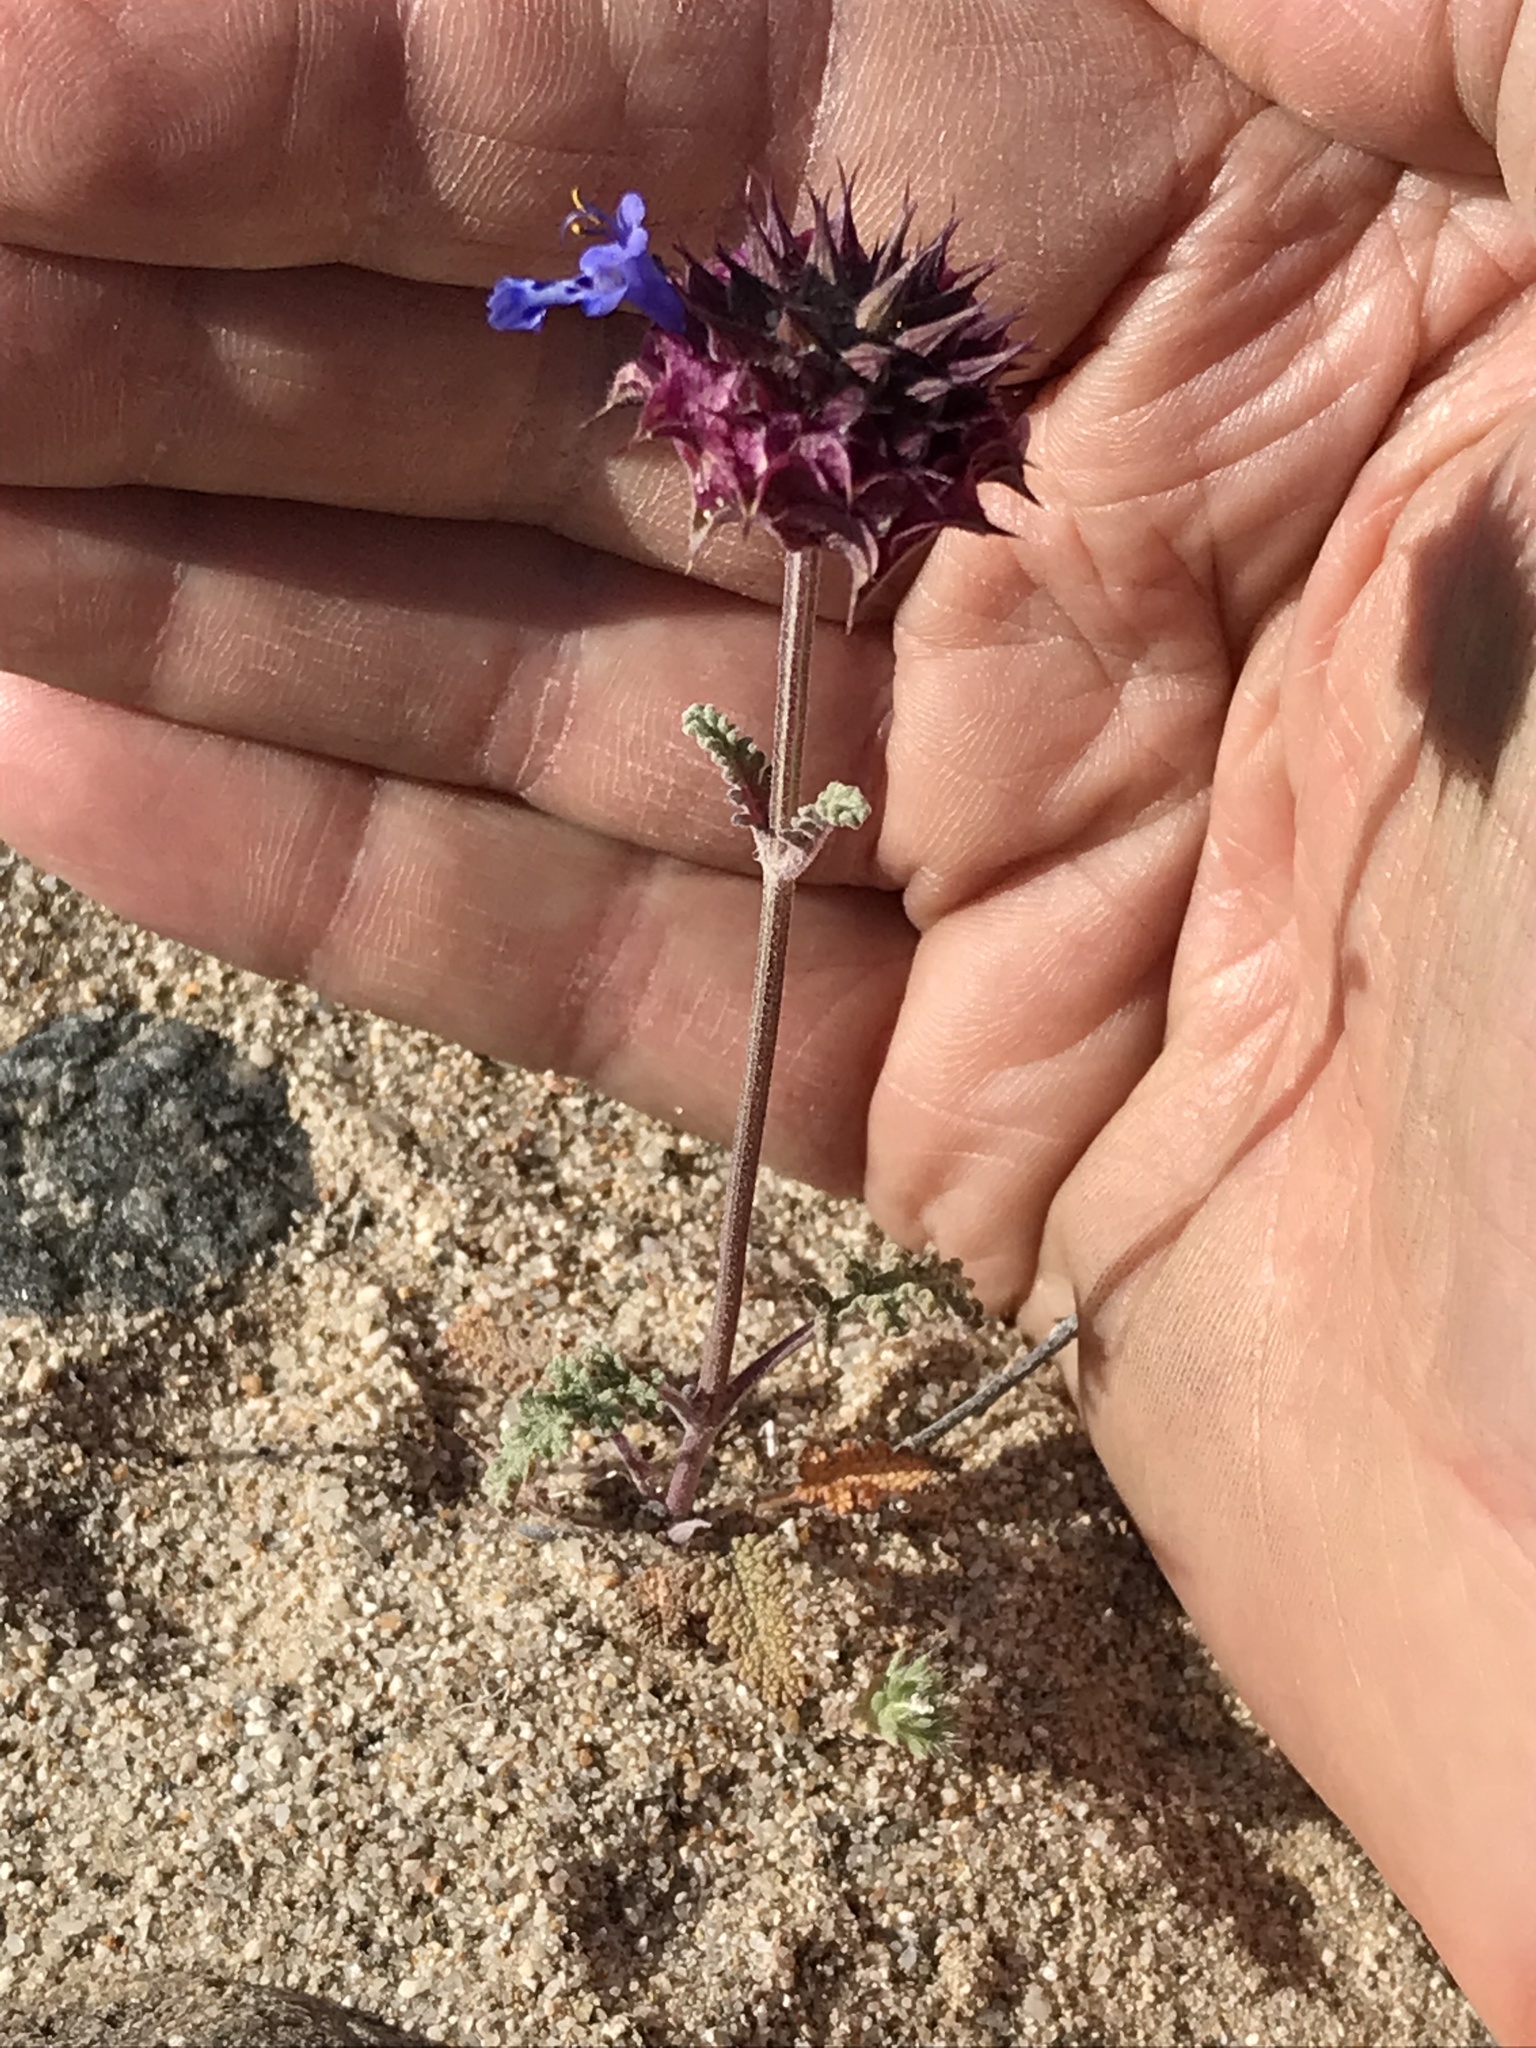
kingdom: Plantae
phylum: Tracheophyta
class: Magnoliopsida
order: Lamiales
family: Lamiaceae
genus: Salvia
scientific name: Salvia columbariae
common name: Chia
